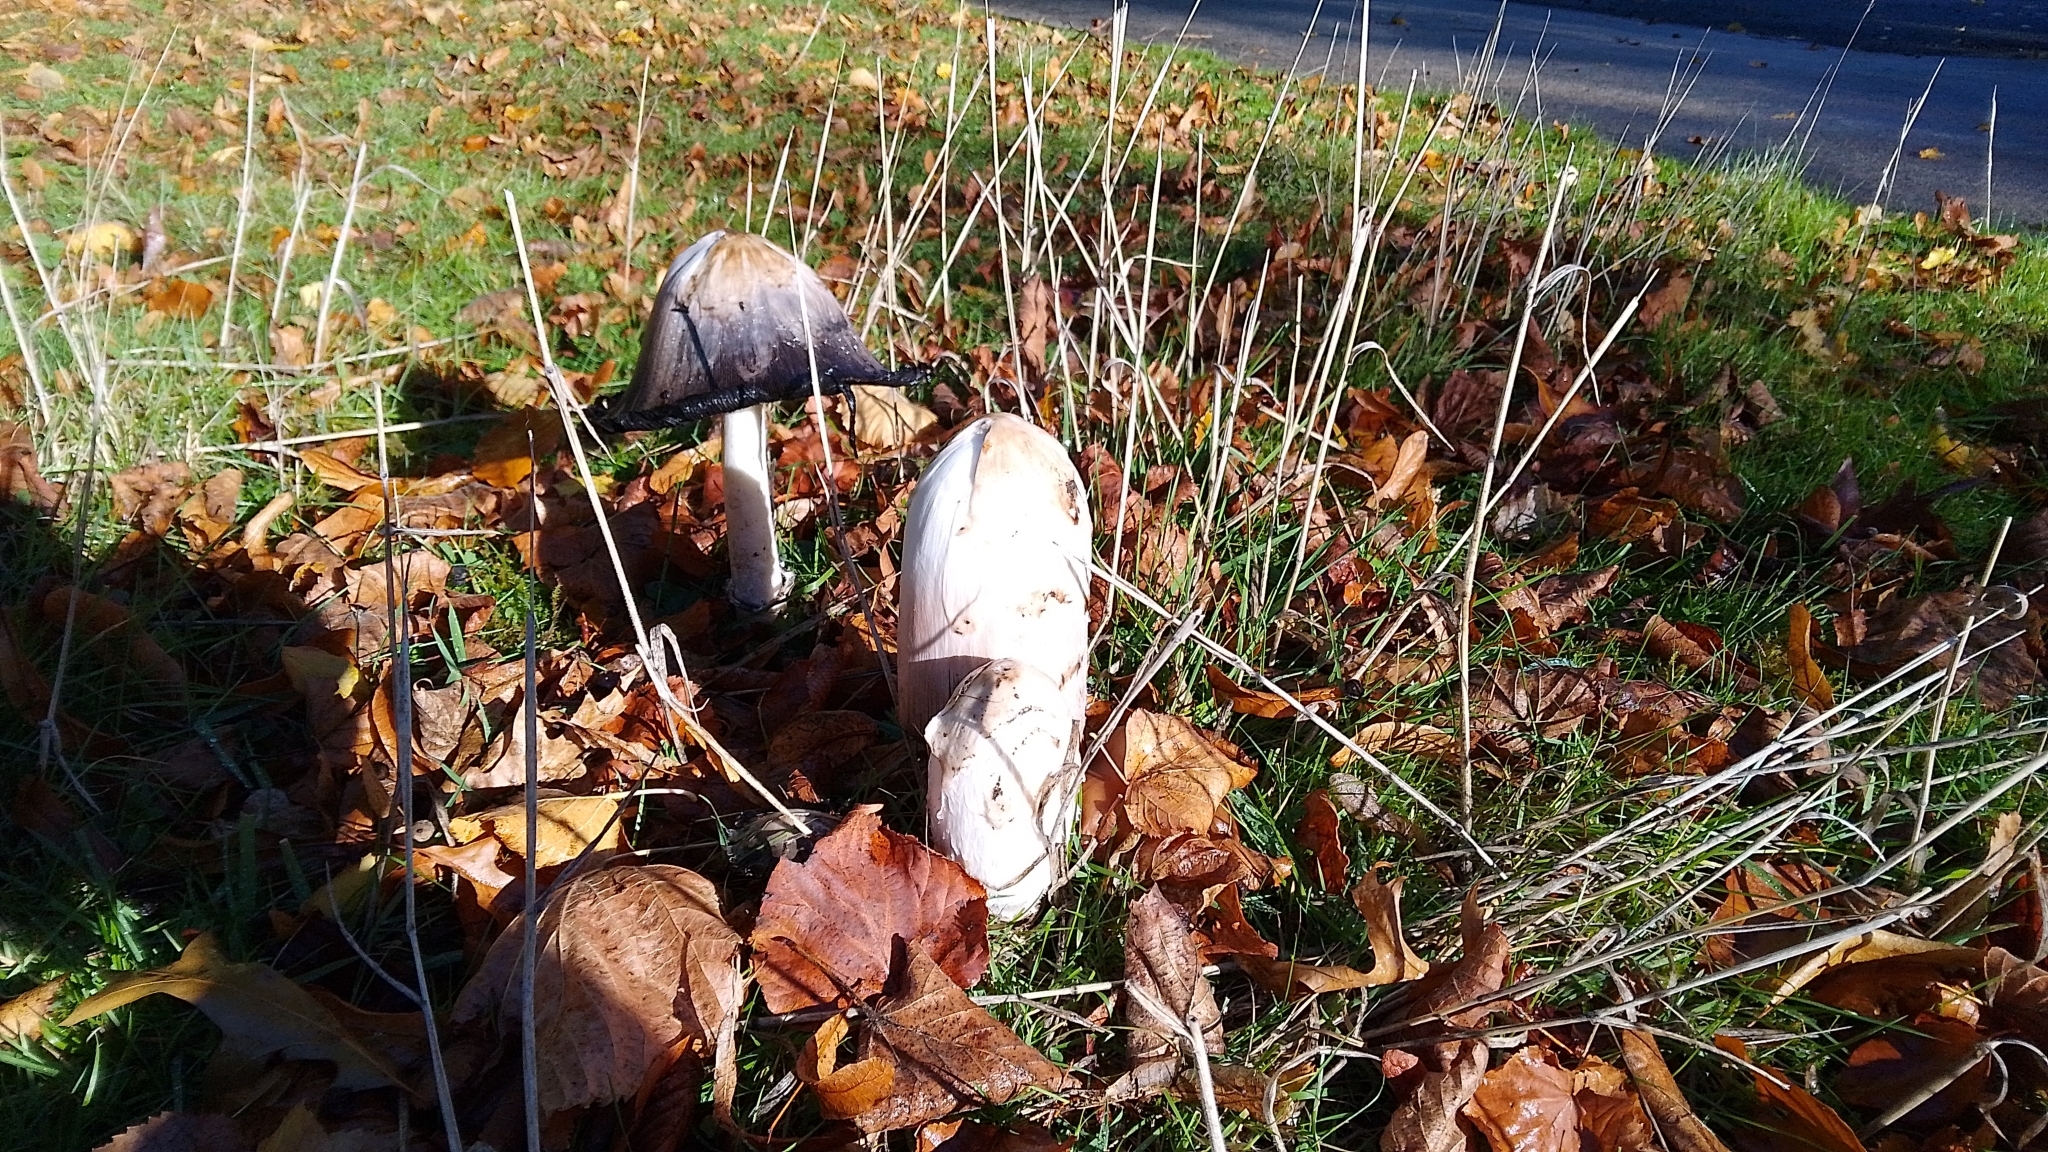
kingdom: Fungi
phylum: Basidiomycota
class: Agaricomycetes
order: Agaricales
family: Agaricaceae
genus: Coprinus
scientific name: Coprinus comatus
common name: Lawyer's wig
